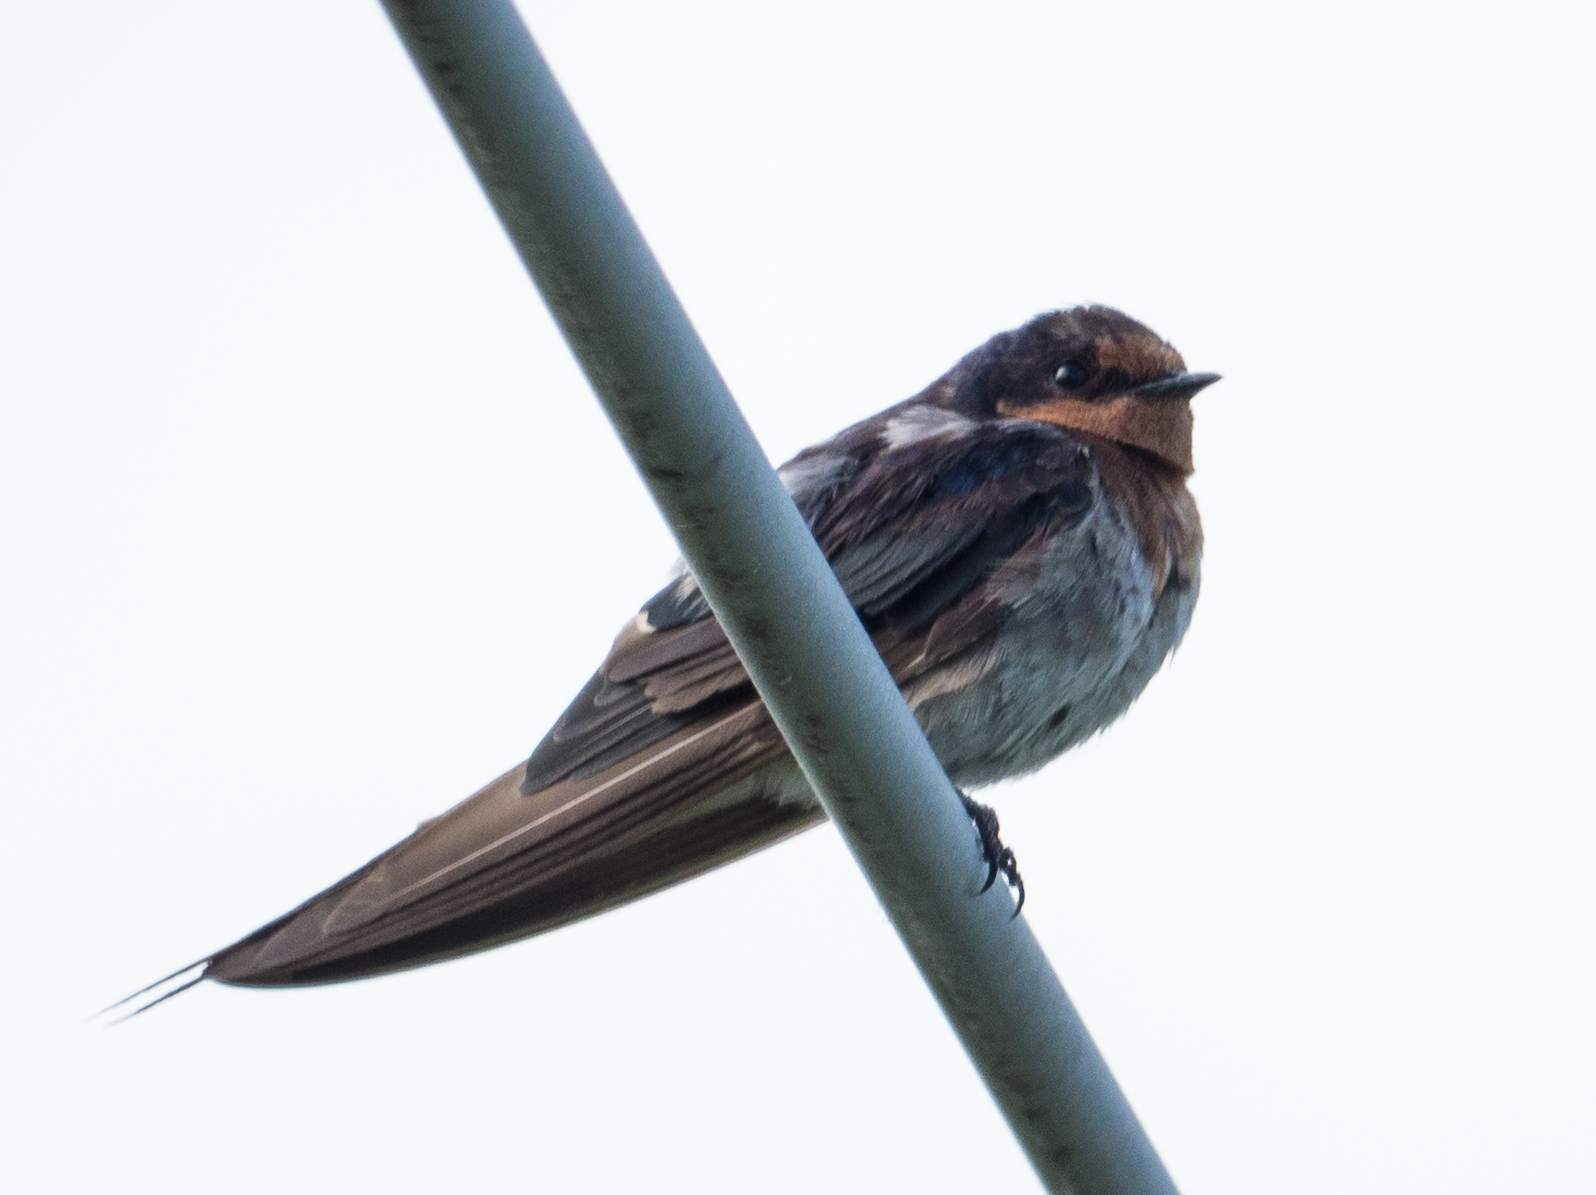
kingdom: Animalia
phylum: Chordata
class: Aves
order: Passeriformes
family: Hirundinidae
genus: Hirundo
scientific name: Hirundo neoxena
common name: Welcome swallow
